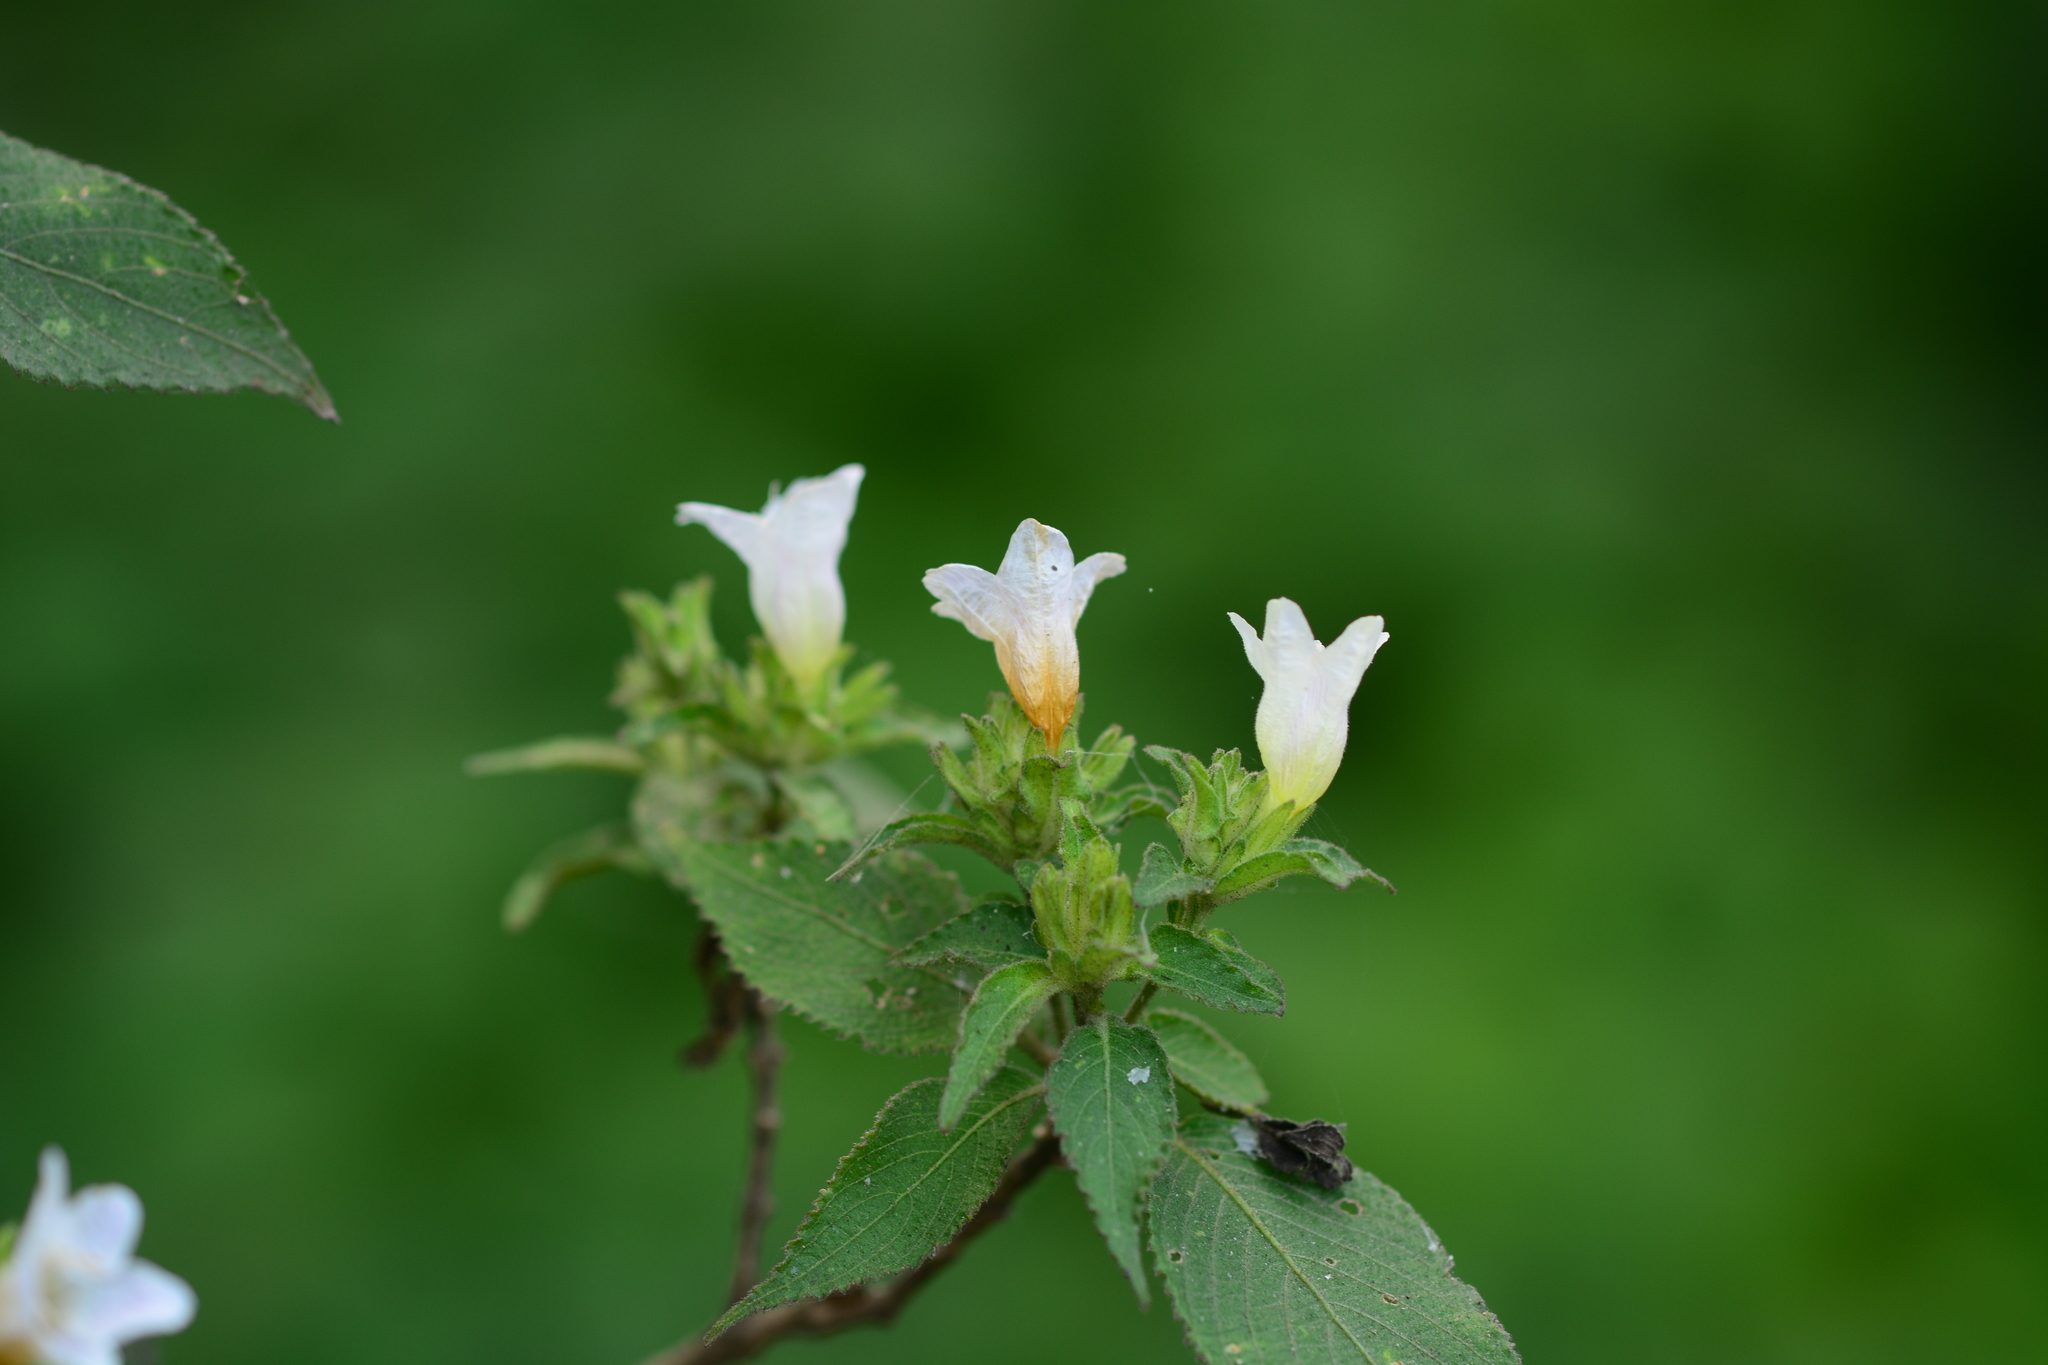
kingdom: Plantae
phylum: Tracheophyta
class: Magnoliopsida
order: Lamiales
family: Acanthaceae
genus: Strobilanthes
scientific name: Strobilanthes ixiocephala
